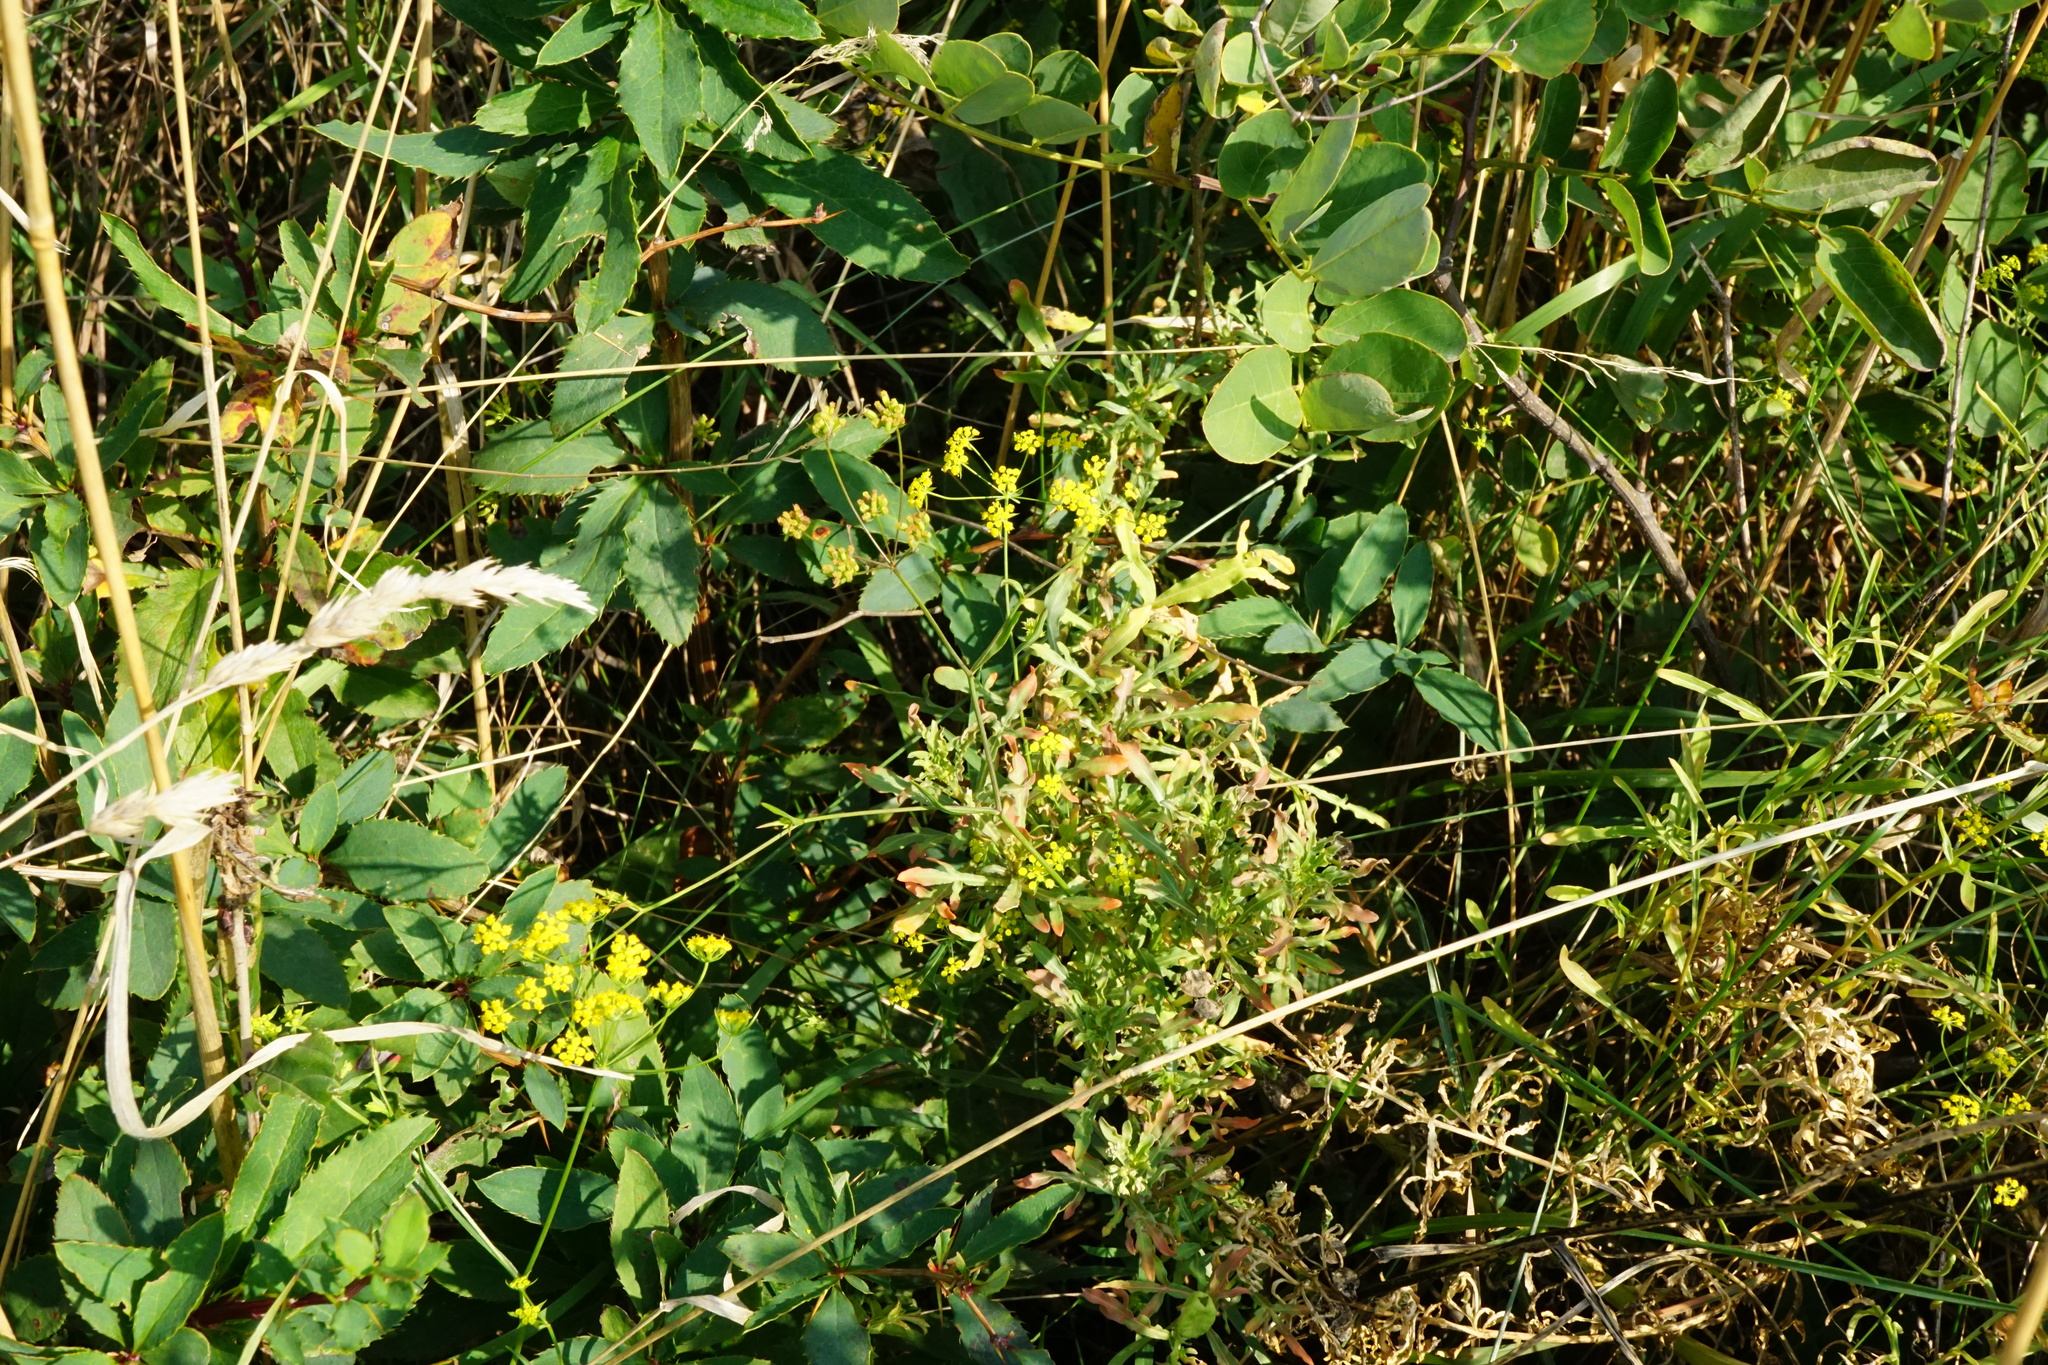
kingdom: Plantae
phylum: Tracheophyta
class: Magnoliopsida
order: Apiales
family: Apiaceae
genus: Bupleurum
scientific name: Bupleurum falcatum
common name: Sickle-leaved hare's-ear
